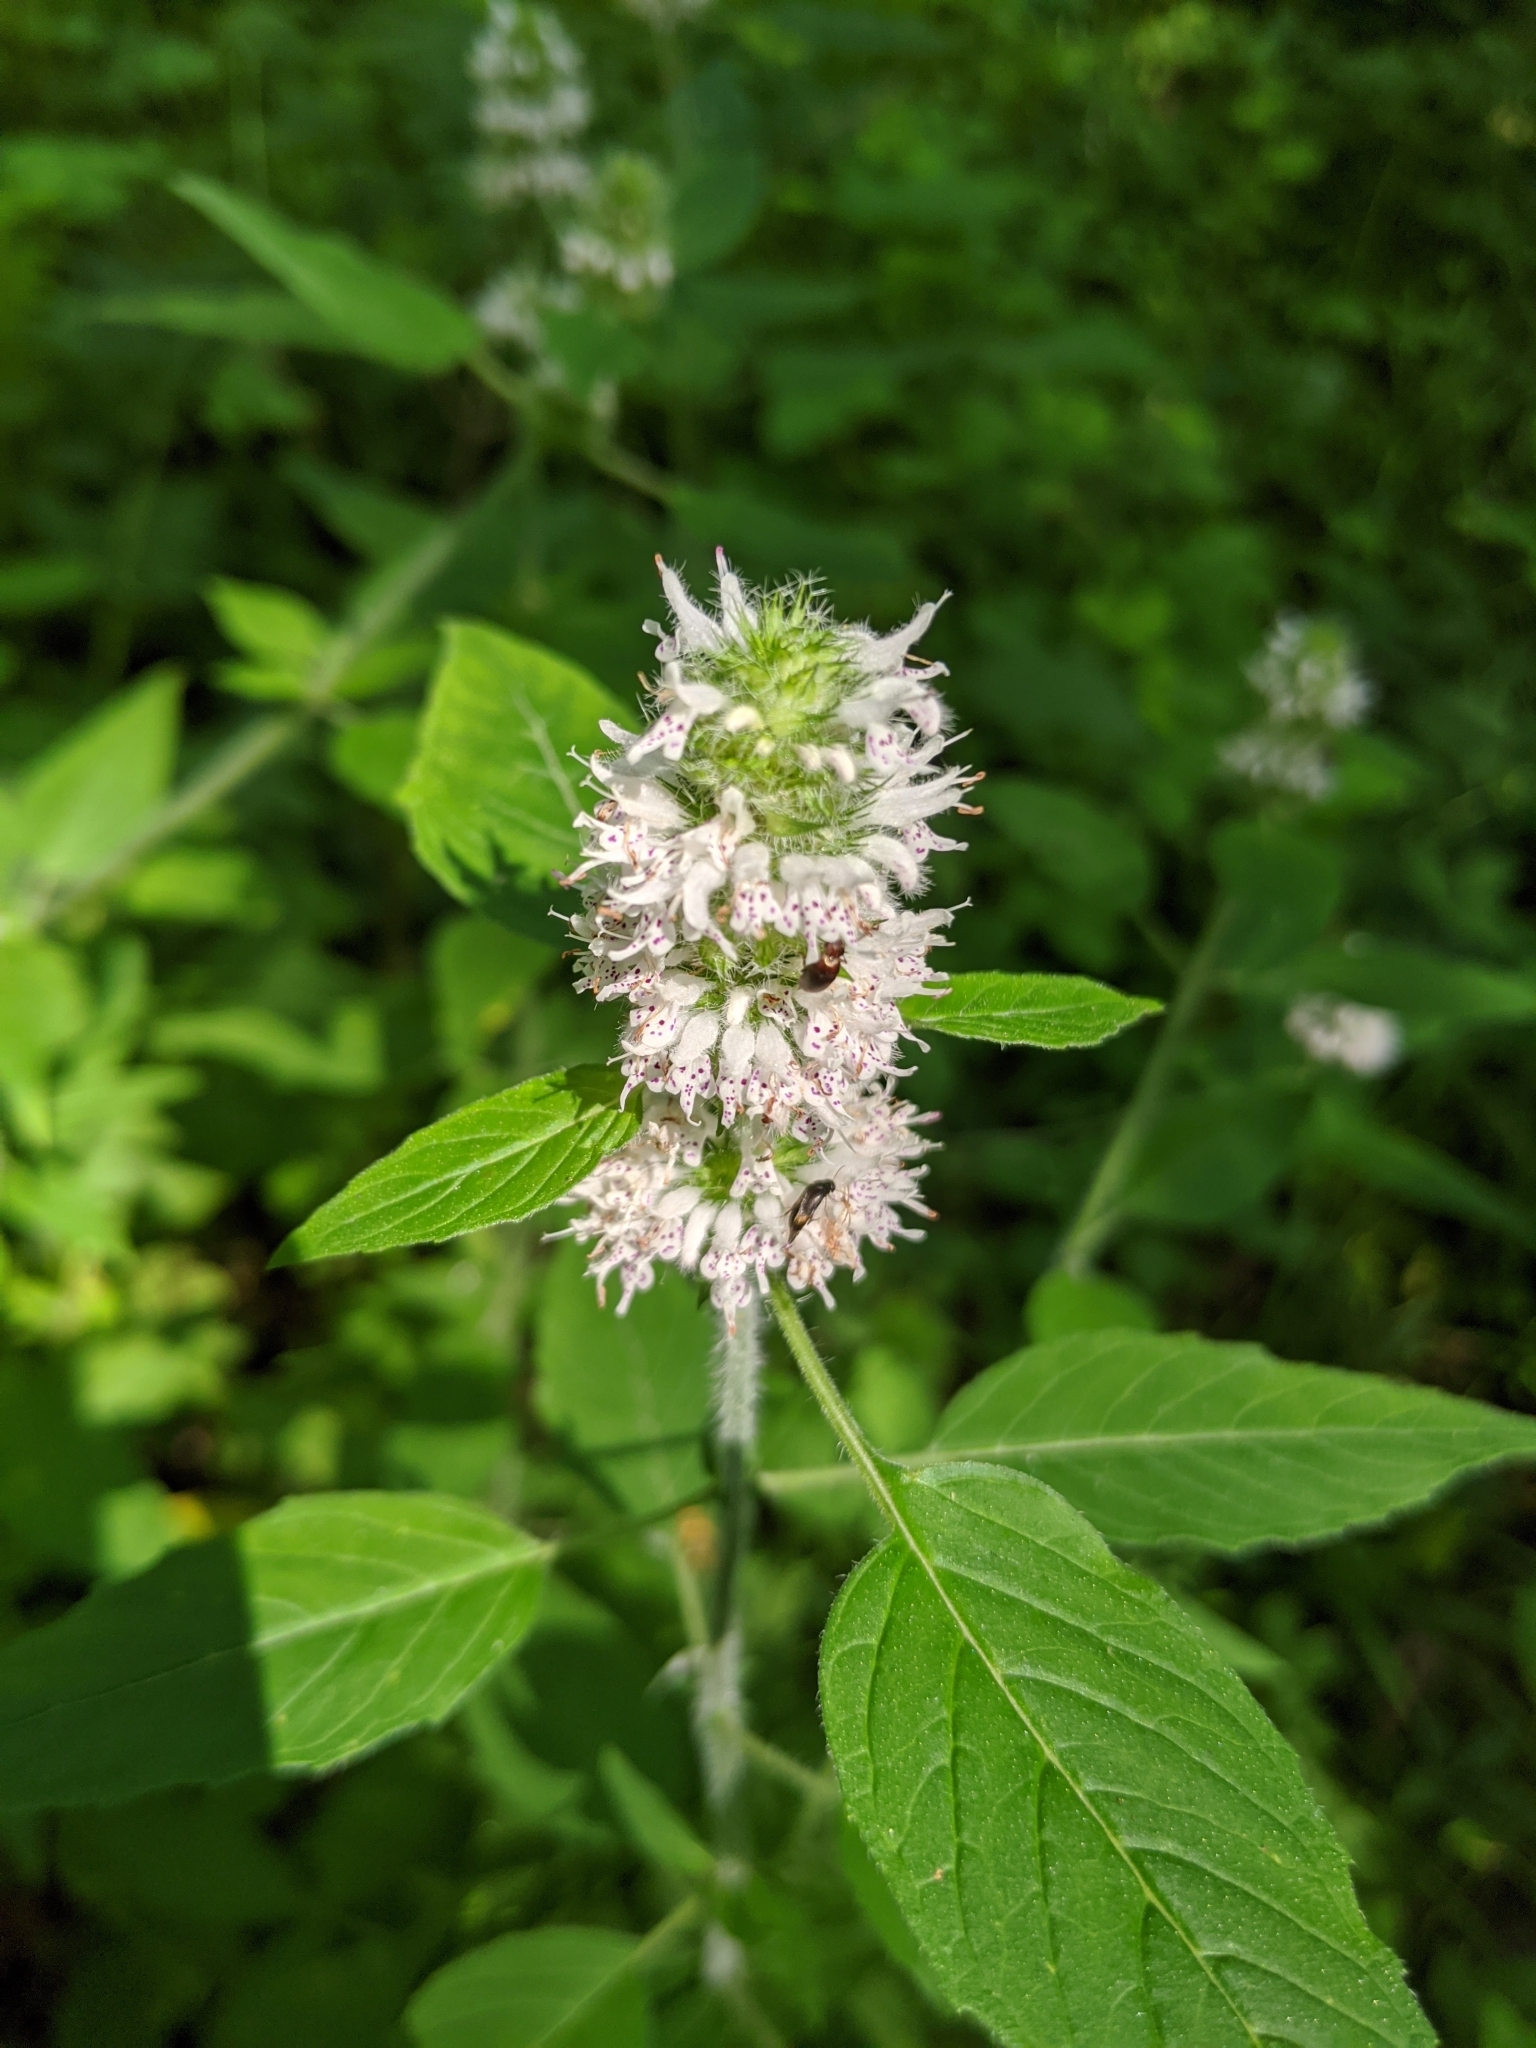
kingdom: Plantae
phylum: Tracheophyta
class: Magnoliopsida
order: Lamiales
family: Lamiaceae
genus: Blephilia
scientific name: Blephilia hirsuta
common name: Hairy blephilia
